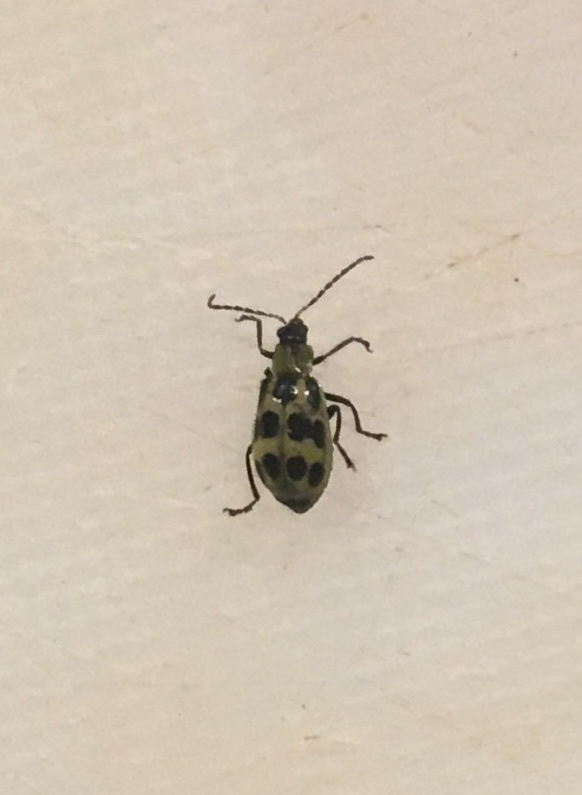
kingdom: Animalia
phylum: Arthropoda
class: Insecta
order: Coleoptera
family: Chrysomelidae
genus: Diabrotica
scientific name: Diabrotica undecimpunctata
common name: Spotted cucumber beetle
